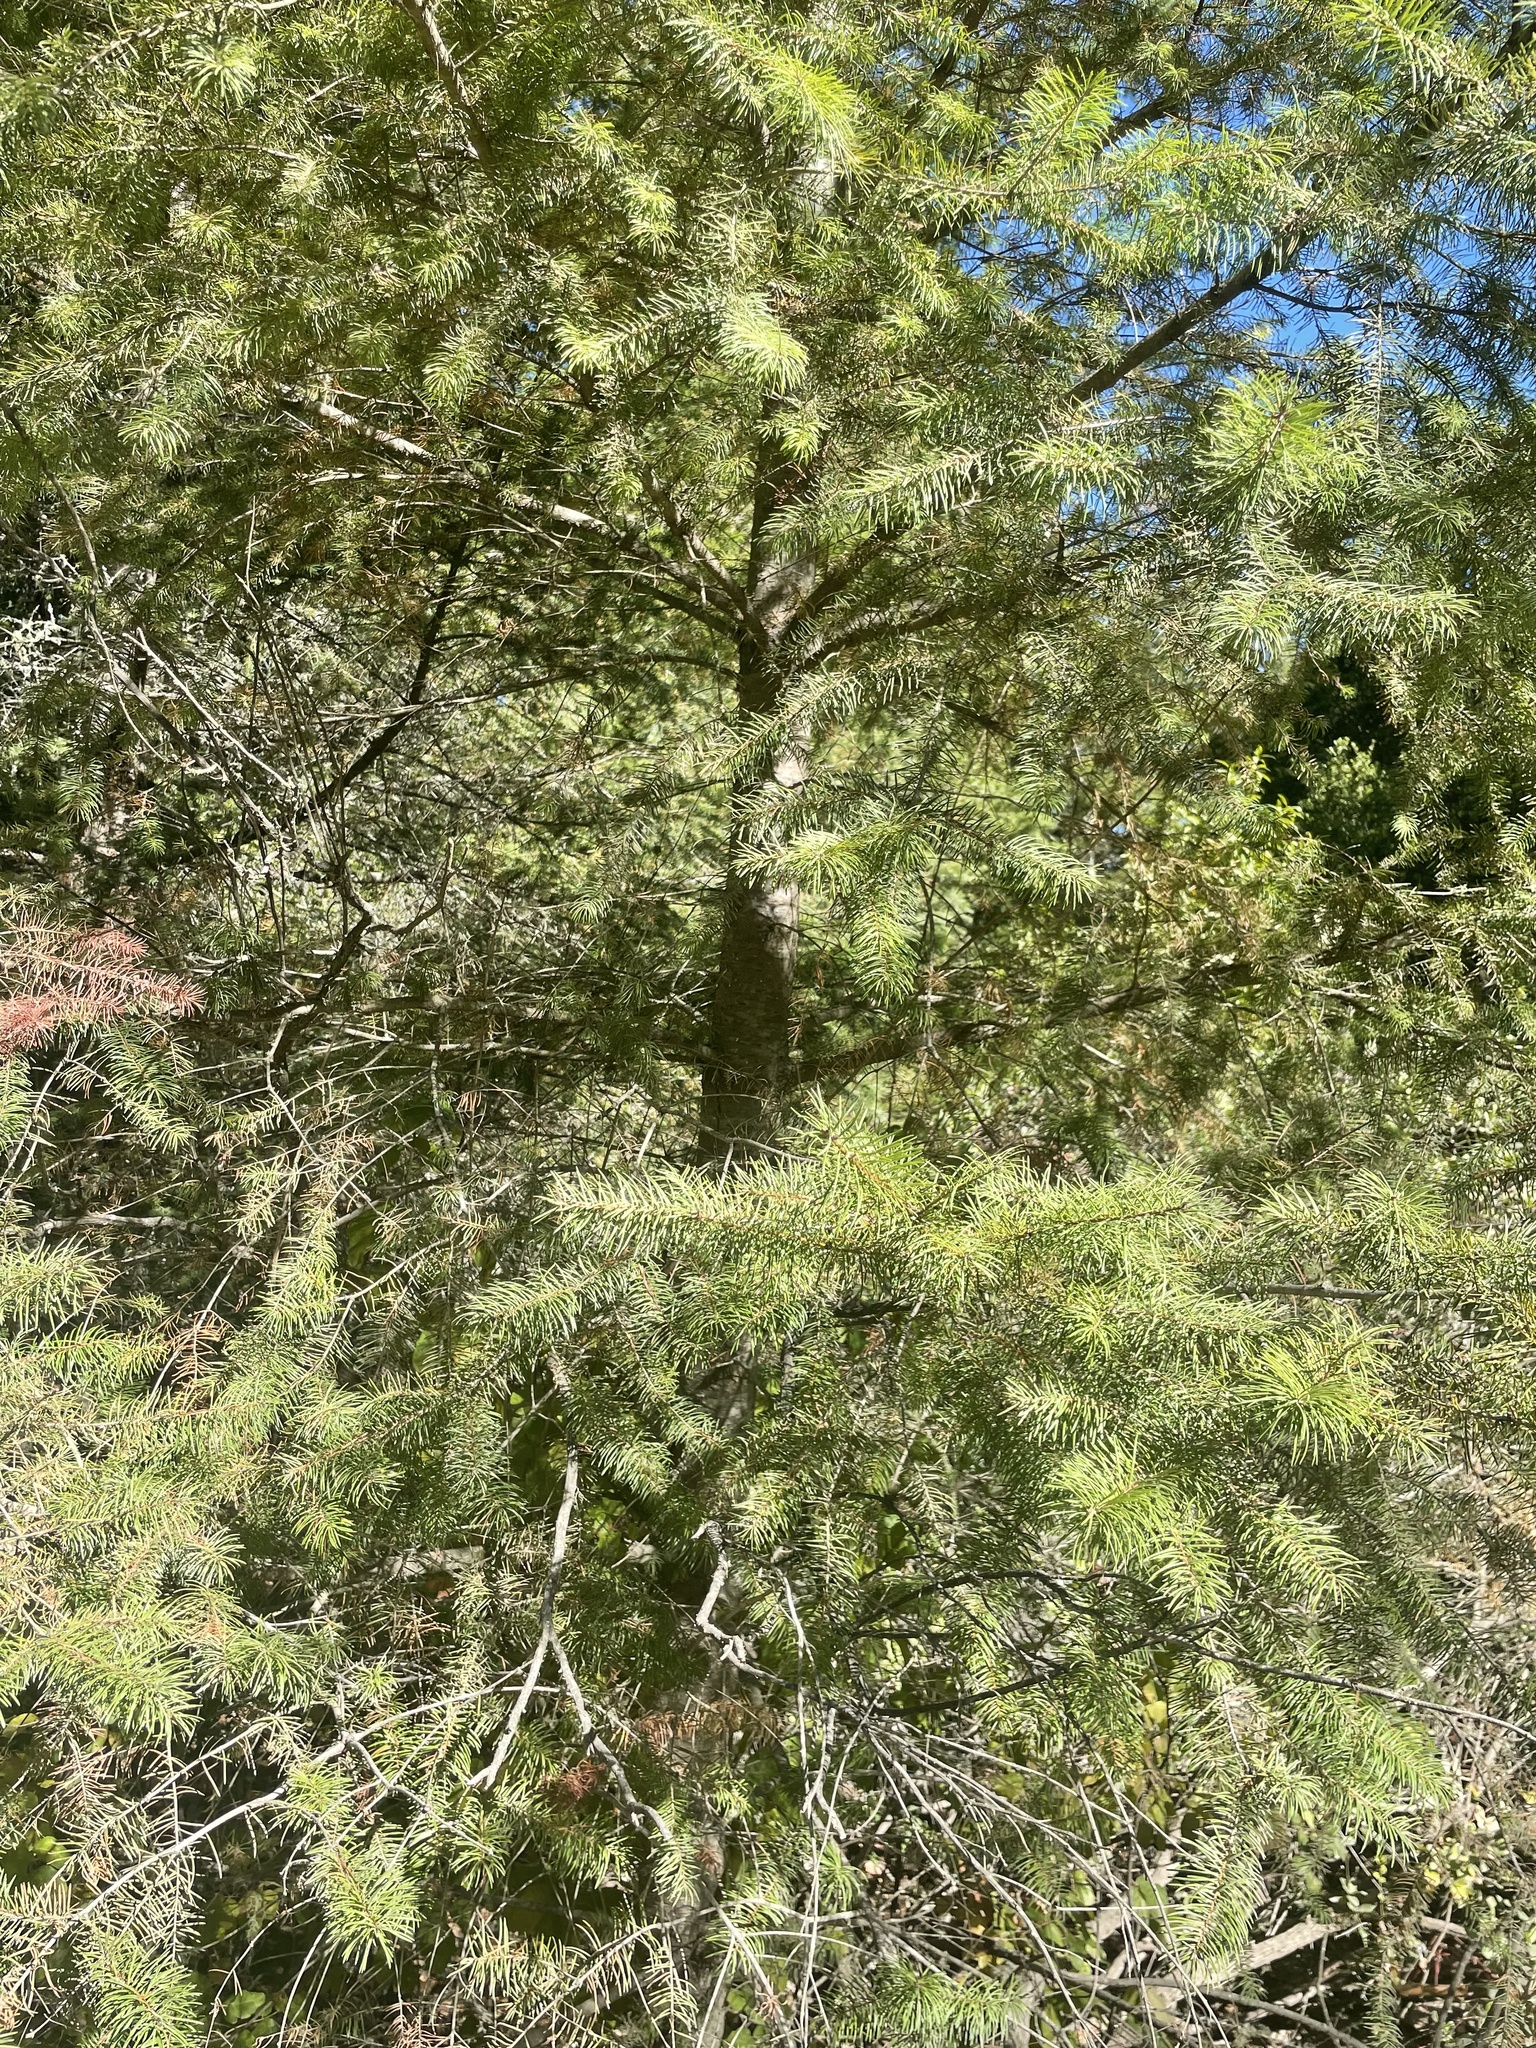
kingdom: Plantae
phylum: Tracheophyta
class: Pinopsida
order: Pinales
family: Pinaceae
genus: Pseudotsuga
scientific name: Pseudotsuga menziesii
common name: Douglas fir
